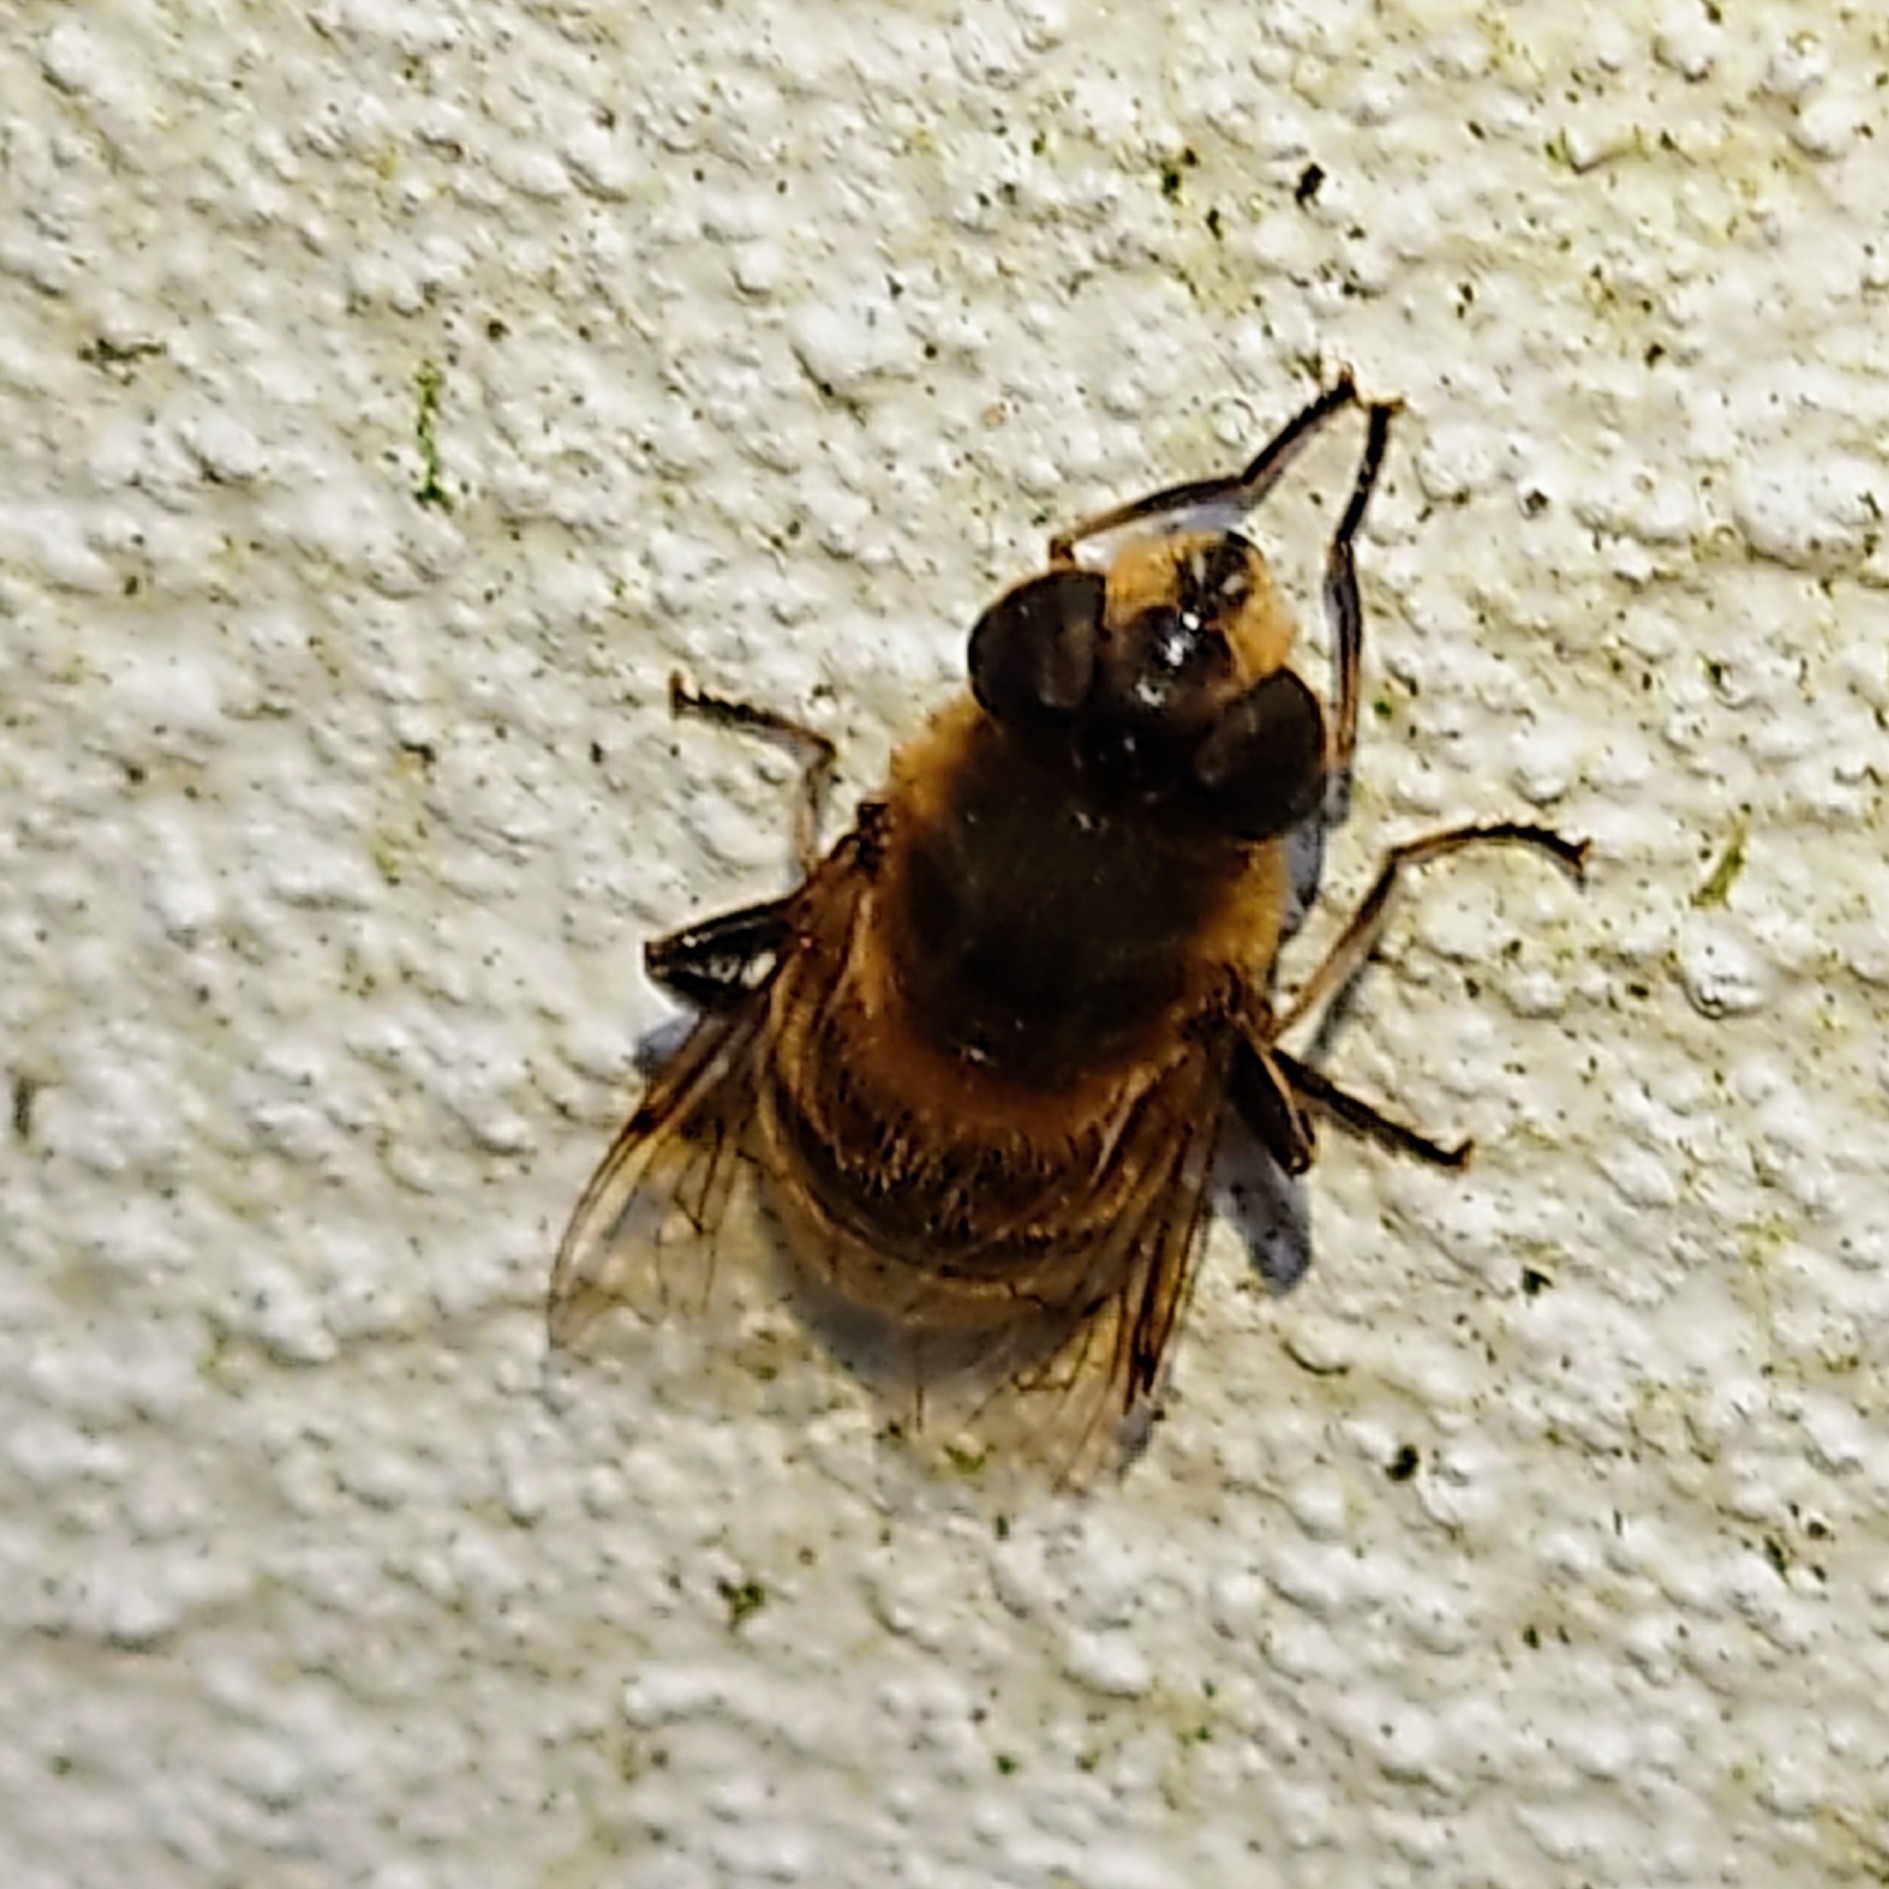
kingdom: Animalia
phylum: Arthropoda
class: Insecta
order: Diptera
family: Syrphidae
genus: Eristalis
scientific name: Eristalis tenax
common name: Drone fly
